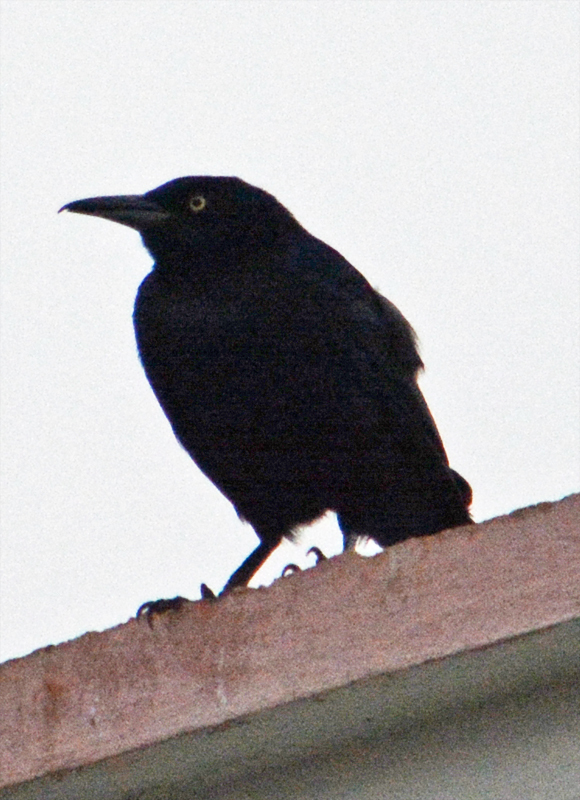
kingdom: Animalia
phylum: Chordata
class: Aves
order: Passeriformes
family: Icteridae
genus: Quiscalus
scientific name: Quiscalus mexicanus
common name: Great-tailed grackle
